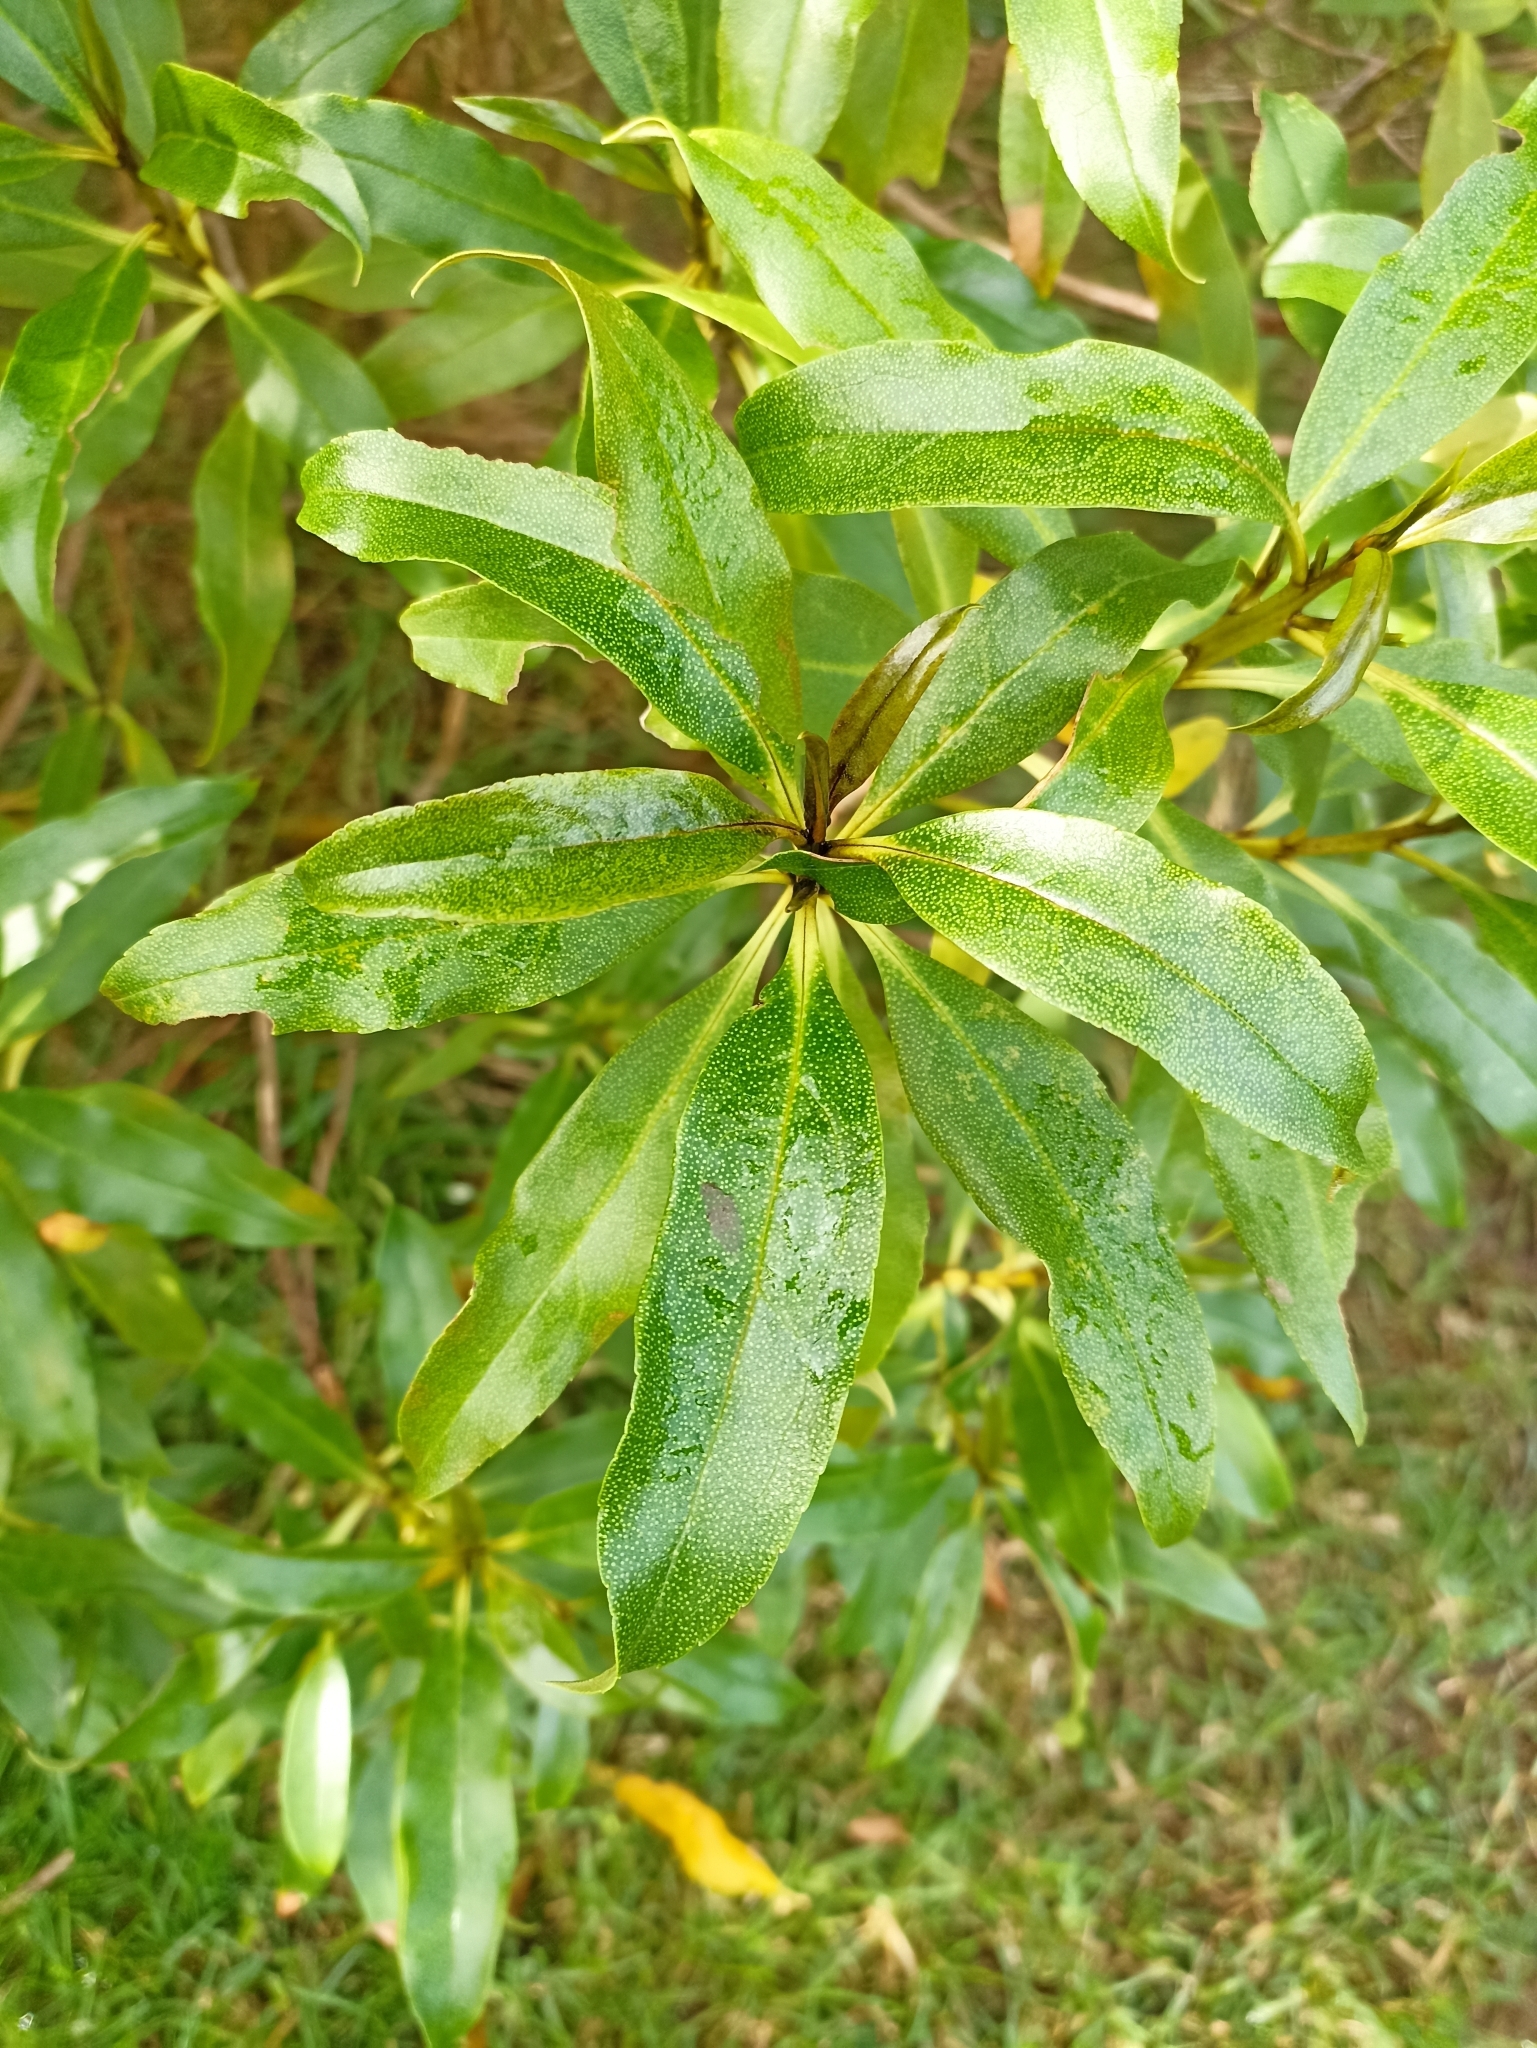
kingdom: Plantae
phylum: Tracheophyta
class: Magnoliopsida
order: Lamiales
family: Scrophulariaceae
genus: Myoporum
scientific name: Myoporum laetum
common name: Ngaio tree
